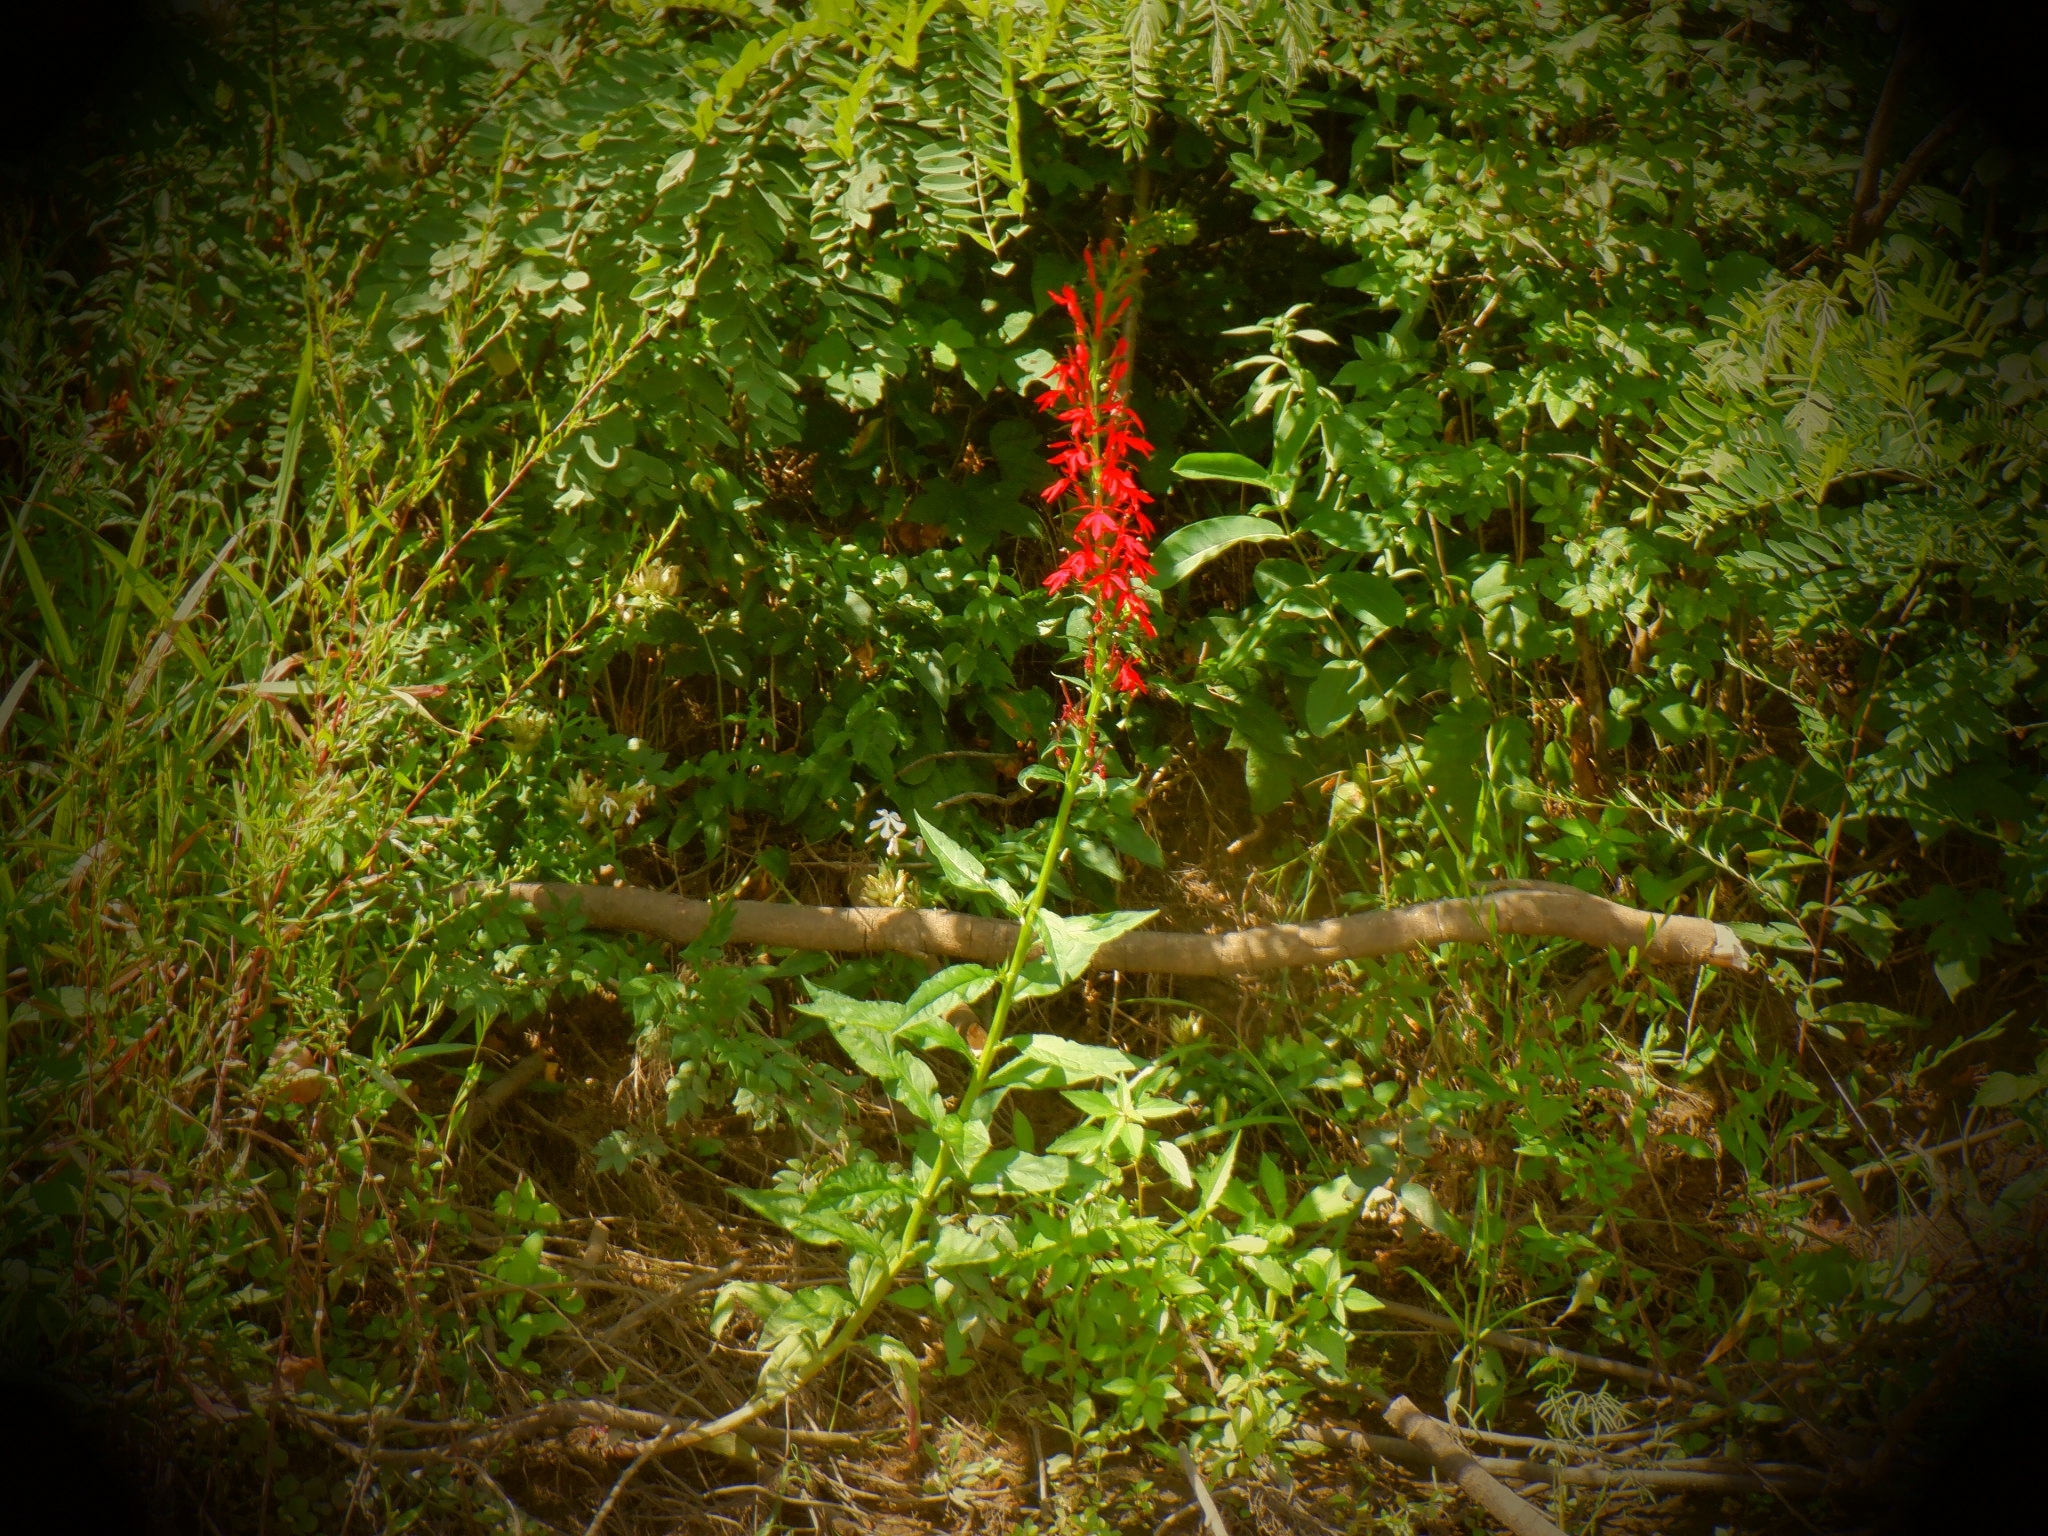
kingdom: Plantae
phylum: Tracheophyta
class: Magnoliopsida
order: Asterales
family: Campanulaceae
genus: Lobelia
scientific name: Lobelia cardinalis
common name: Cardinal flower
